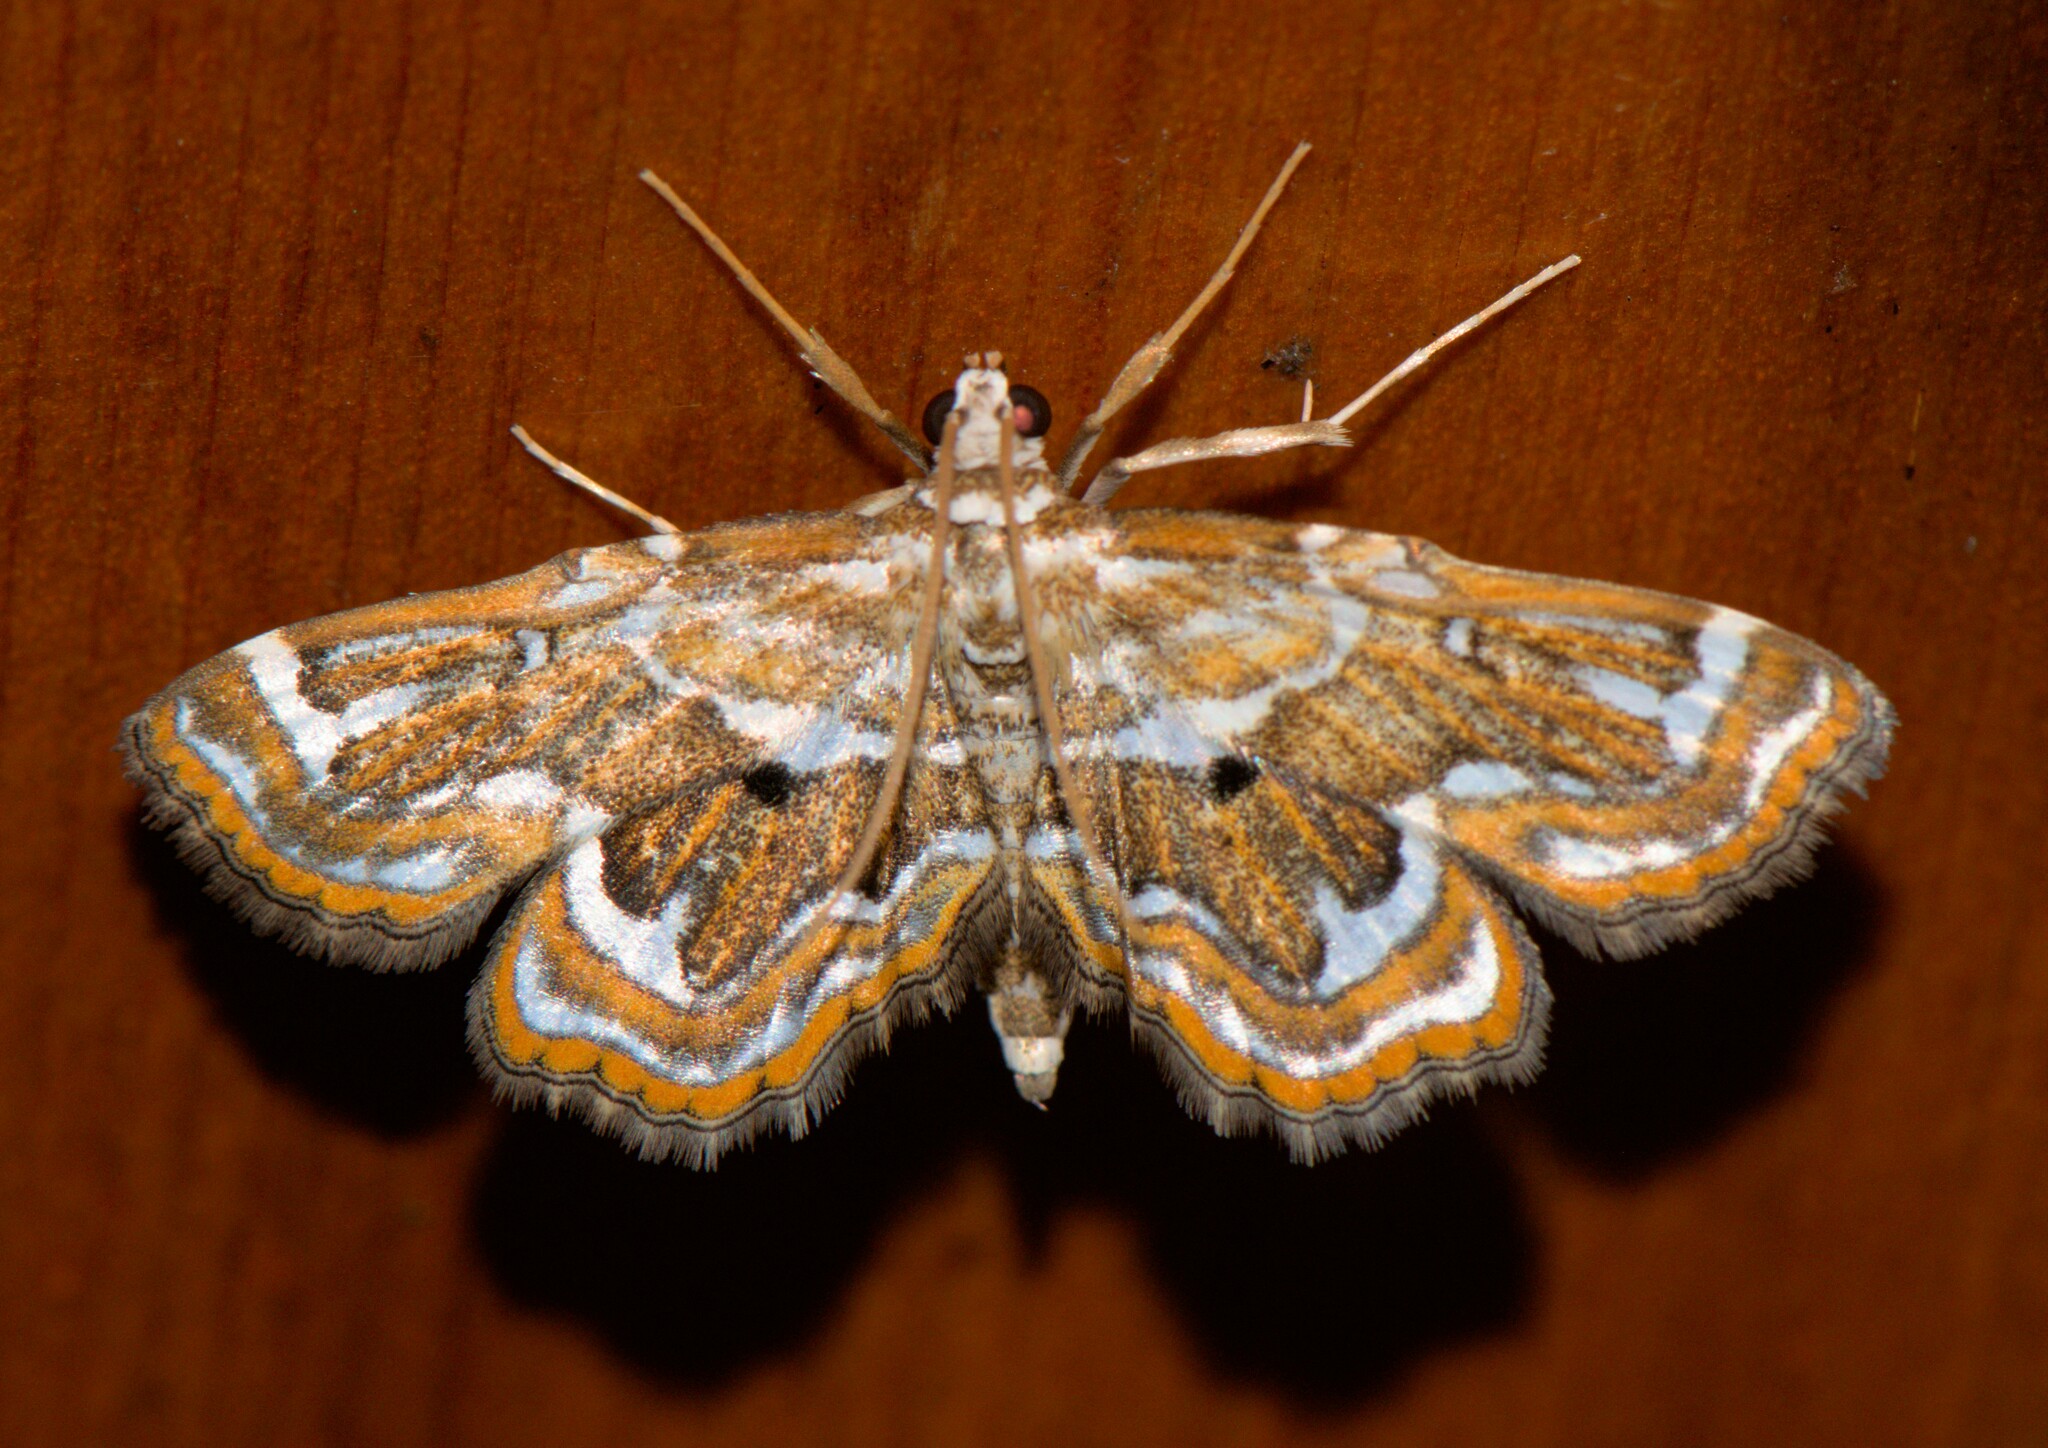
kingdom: Animalia
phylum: Arthropoda
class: Insecta
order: Lepidoptera
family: Pyralidae
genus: Cymoriza
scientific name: Cymoriza irrectalis
